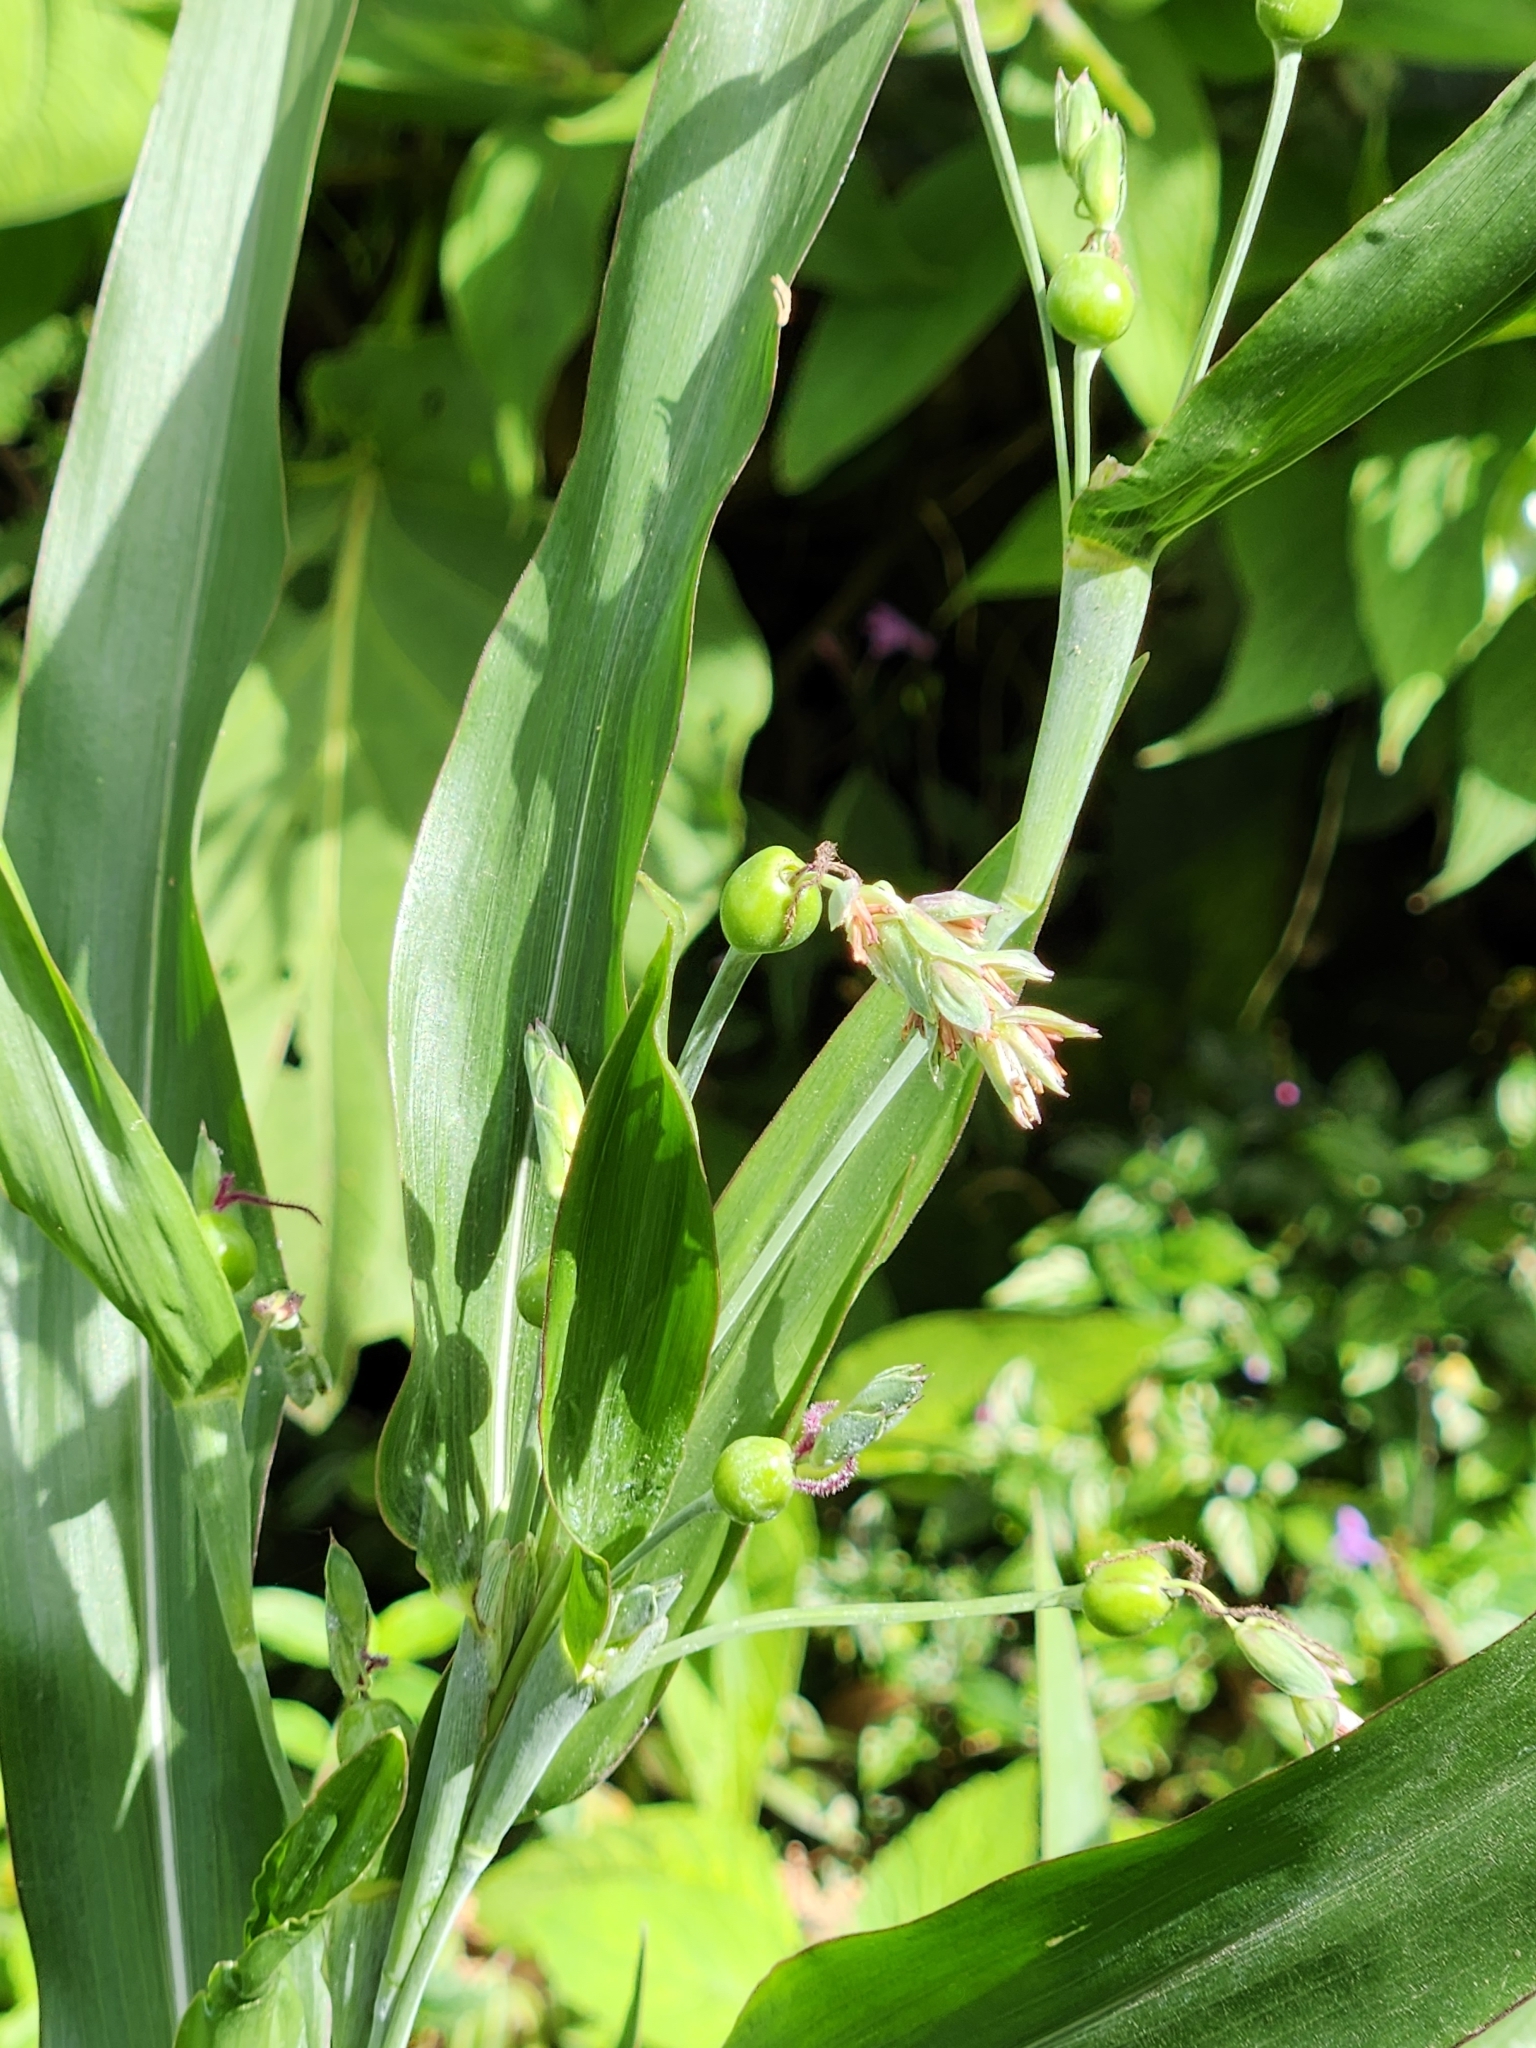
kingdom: Plantae
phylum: Tracheophyta
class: Liliopsida
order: Poales
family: Poaceae
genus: Coix
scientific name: Coix lacryma-jobi
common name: Job's tears
